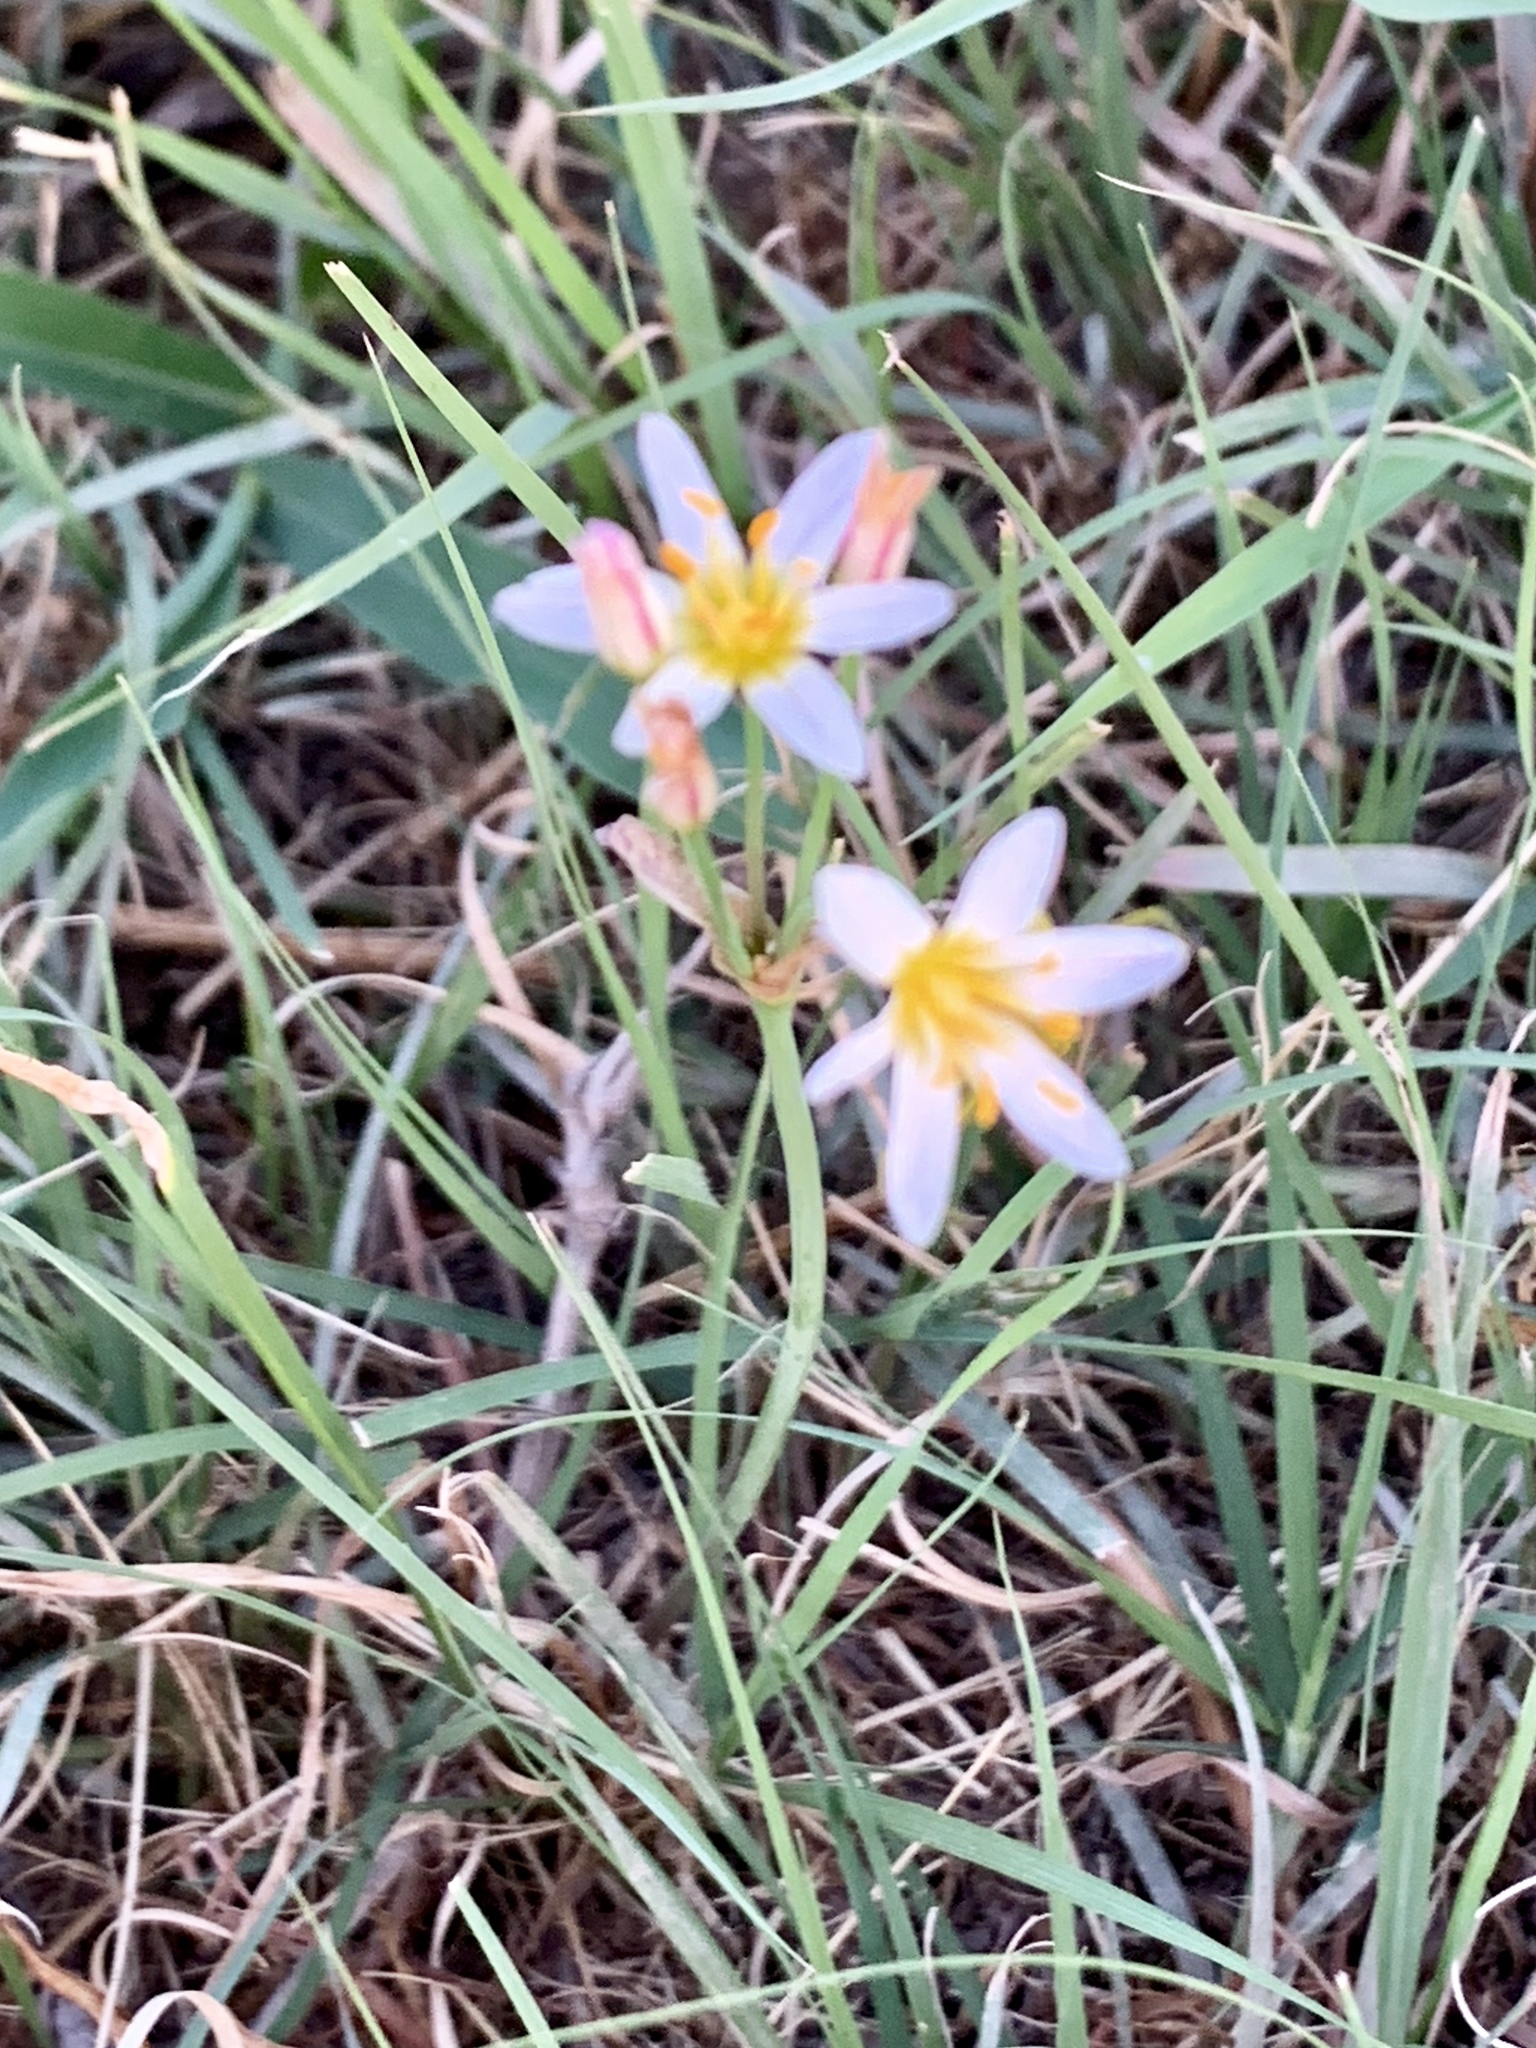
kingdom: Plantae
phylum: Tracheophyta
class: Liliopsida
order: Asparagales
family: Amaryllidaceae
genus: Nothoscordum
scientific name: Nothoscordum bivalve
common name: Crow-poison
